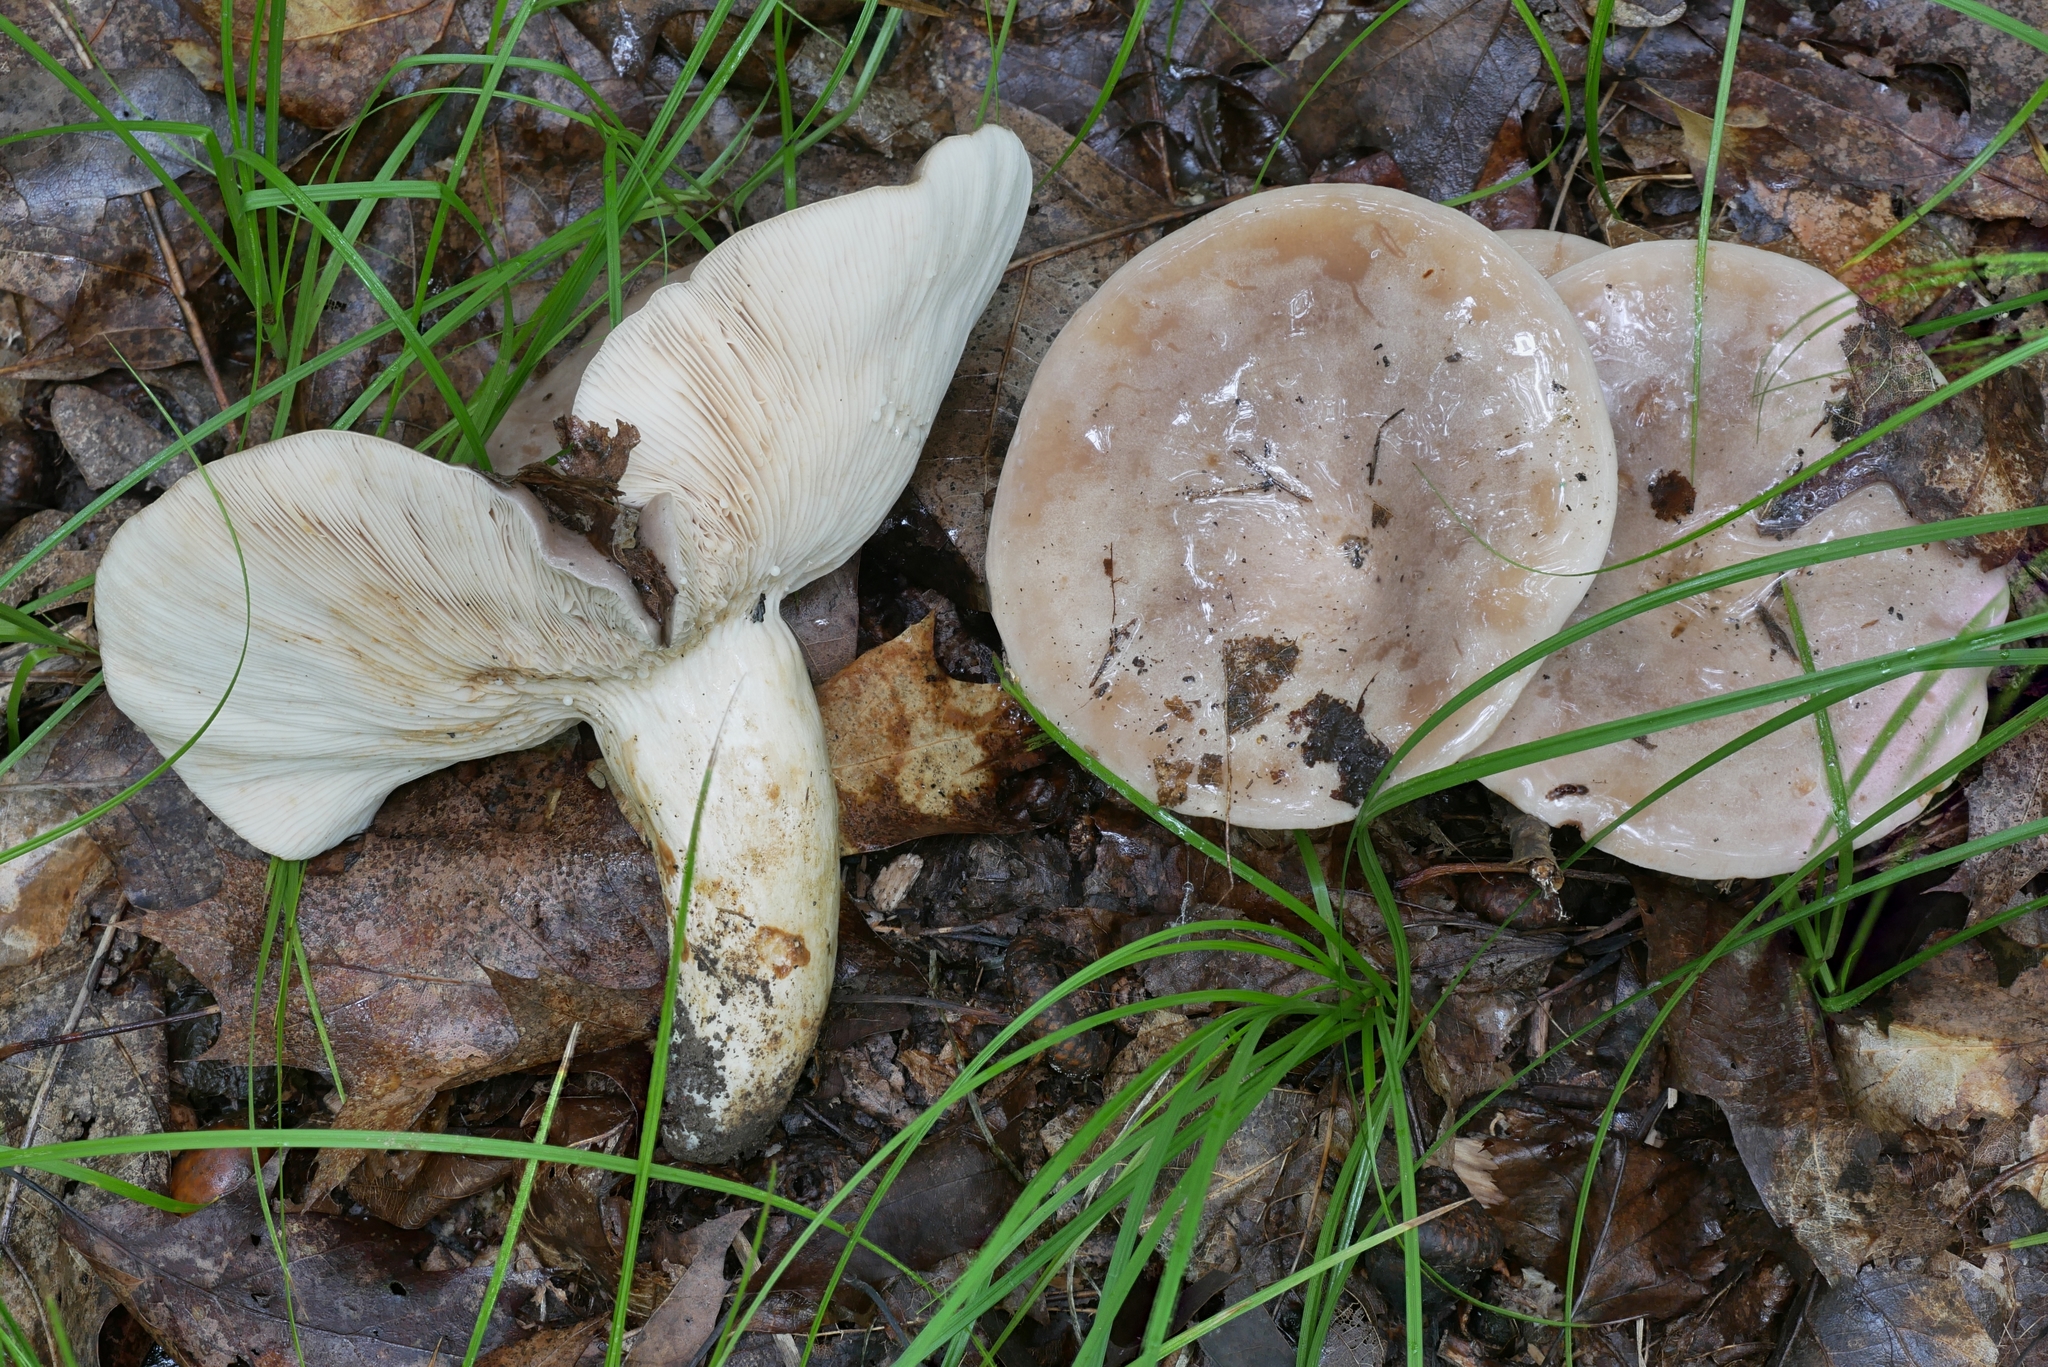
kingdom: Fungi
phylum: Basidiomycota
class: Agaricomycetes
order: Russulales
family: Russulaceae
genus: Lactarius
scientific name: Lactarius argillaceifolius
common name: Clay-gilled milkcap
